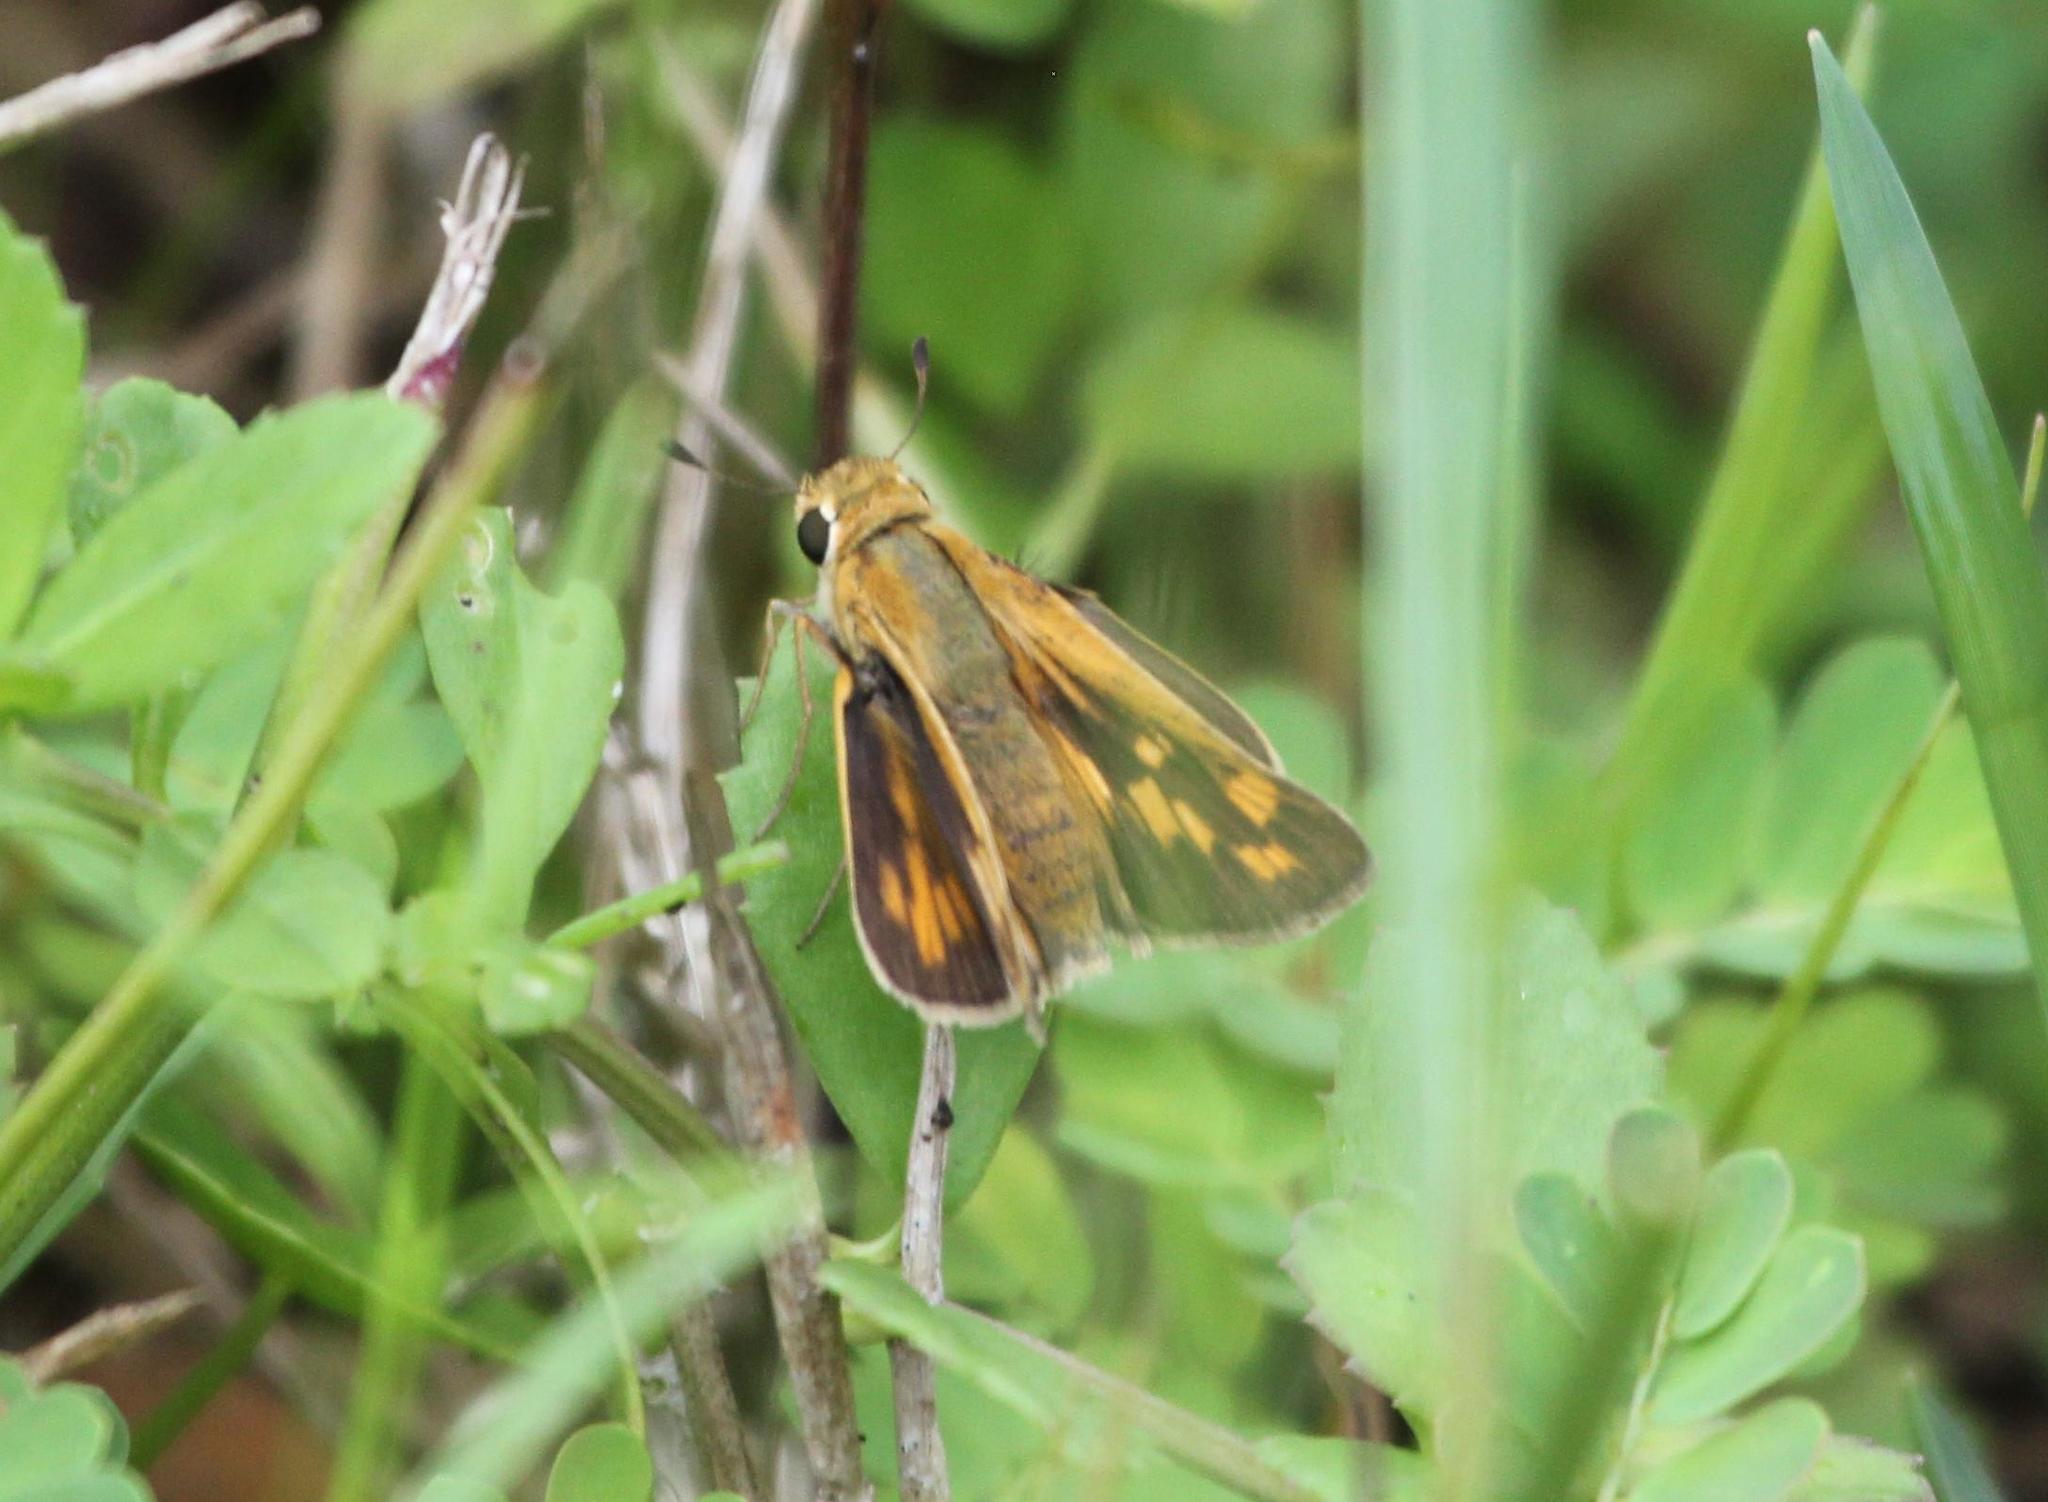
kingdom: Animalia
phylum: Arthropoda
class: Insecta
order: Lepidoptera
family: Hesperiidae
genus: Hylephila
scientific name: Hylephila phyleus
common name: Fiery skipper
